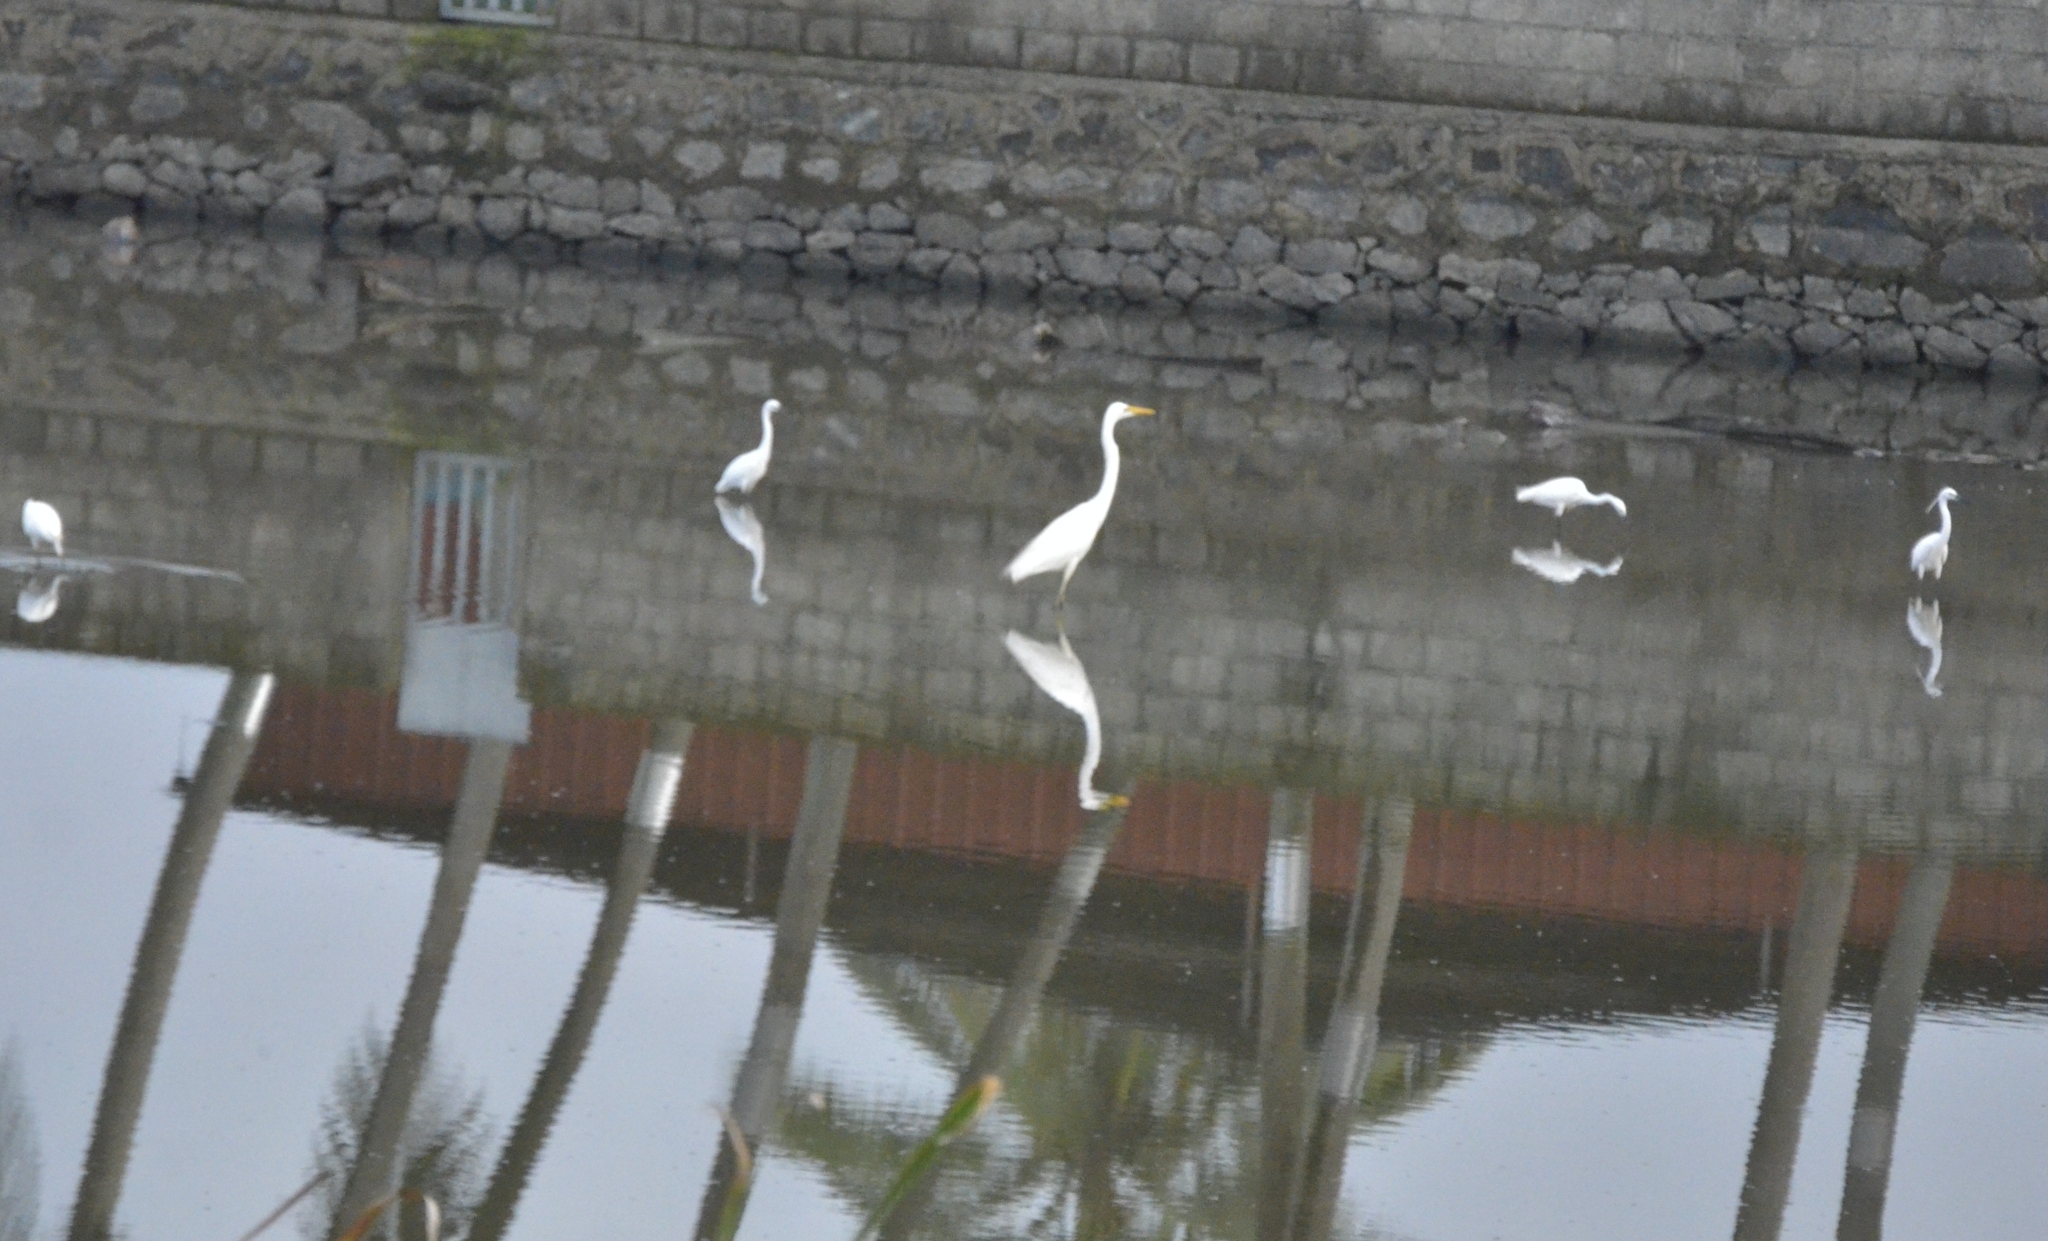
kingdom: Animalia
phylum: Chordata
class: Aves
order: Pelecaniformes
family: Ardeidae
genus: Ardea
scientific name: Ardea alba
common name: Great egret
